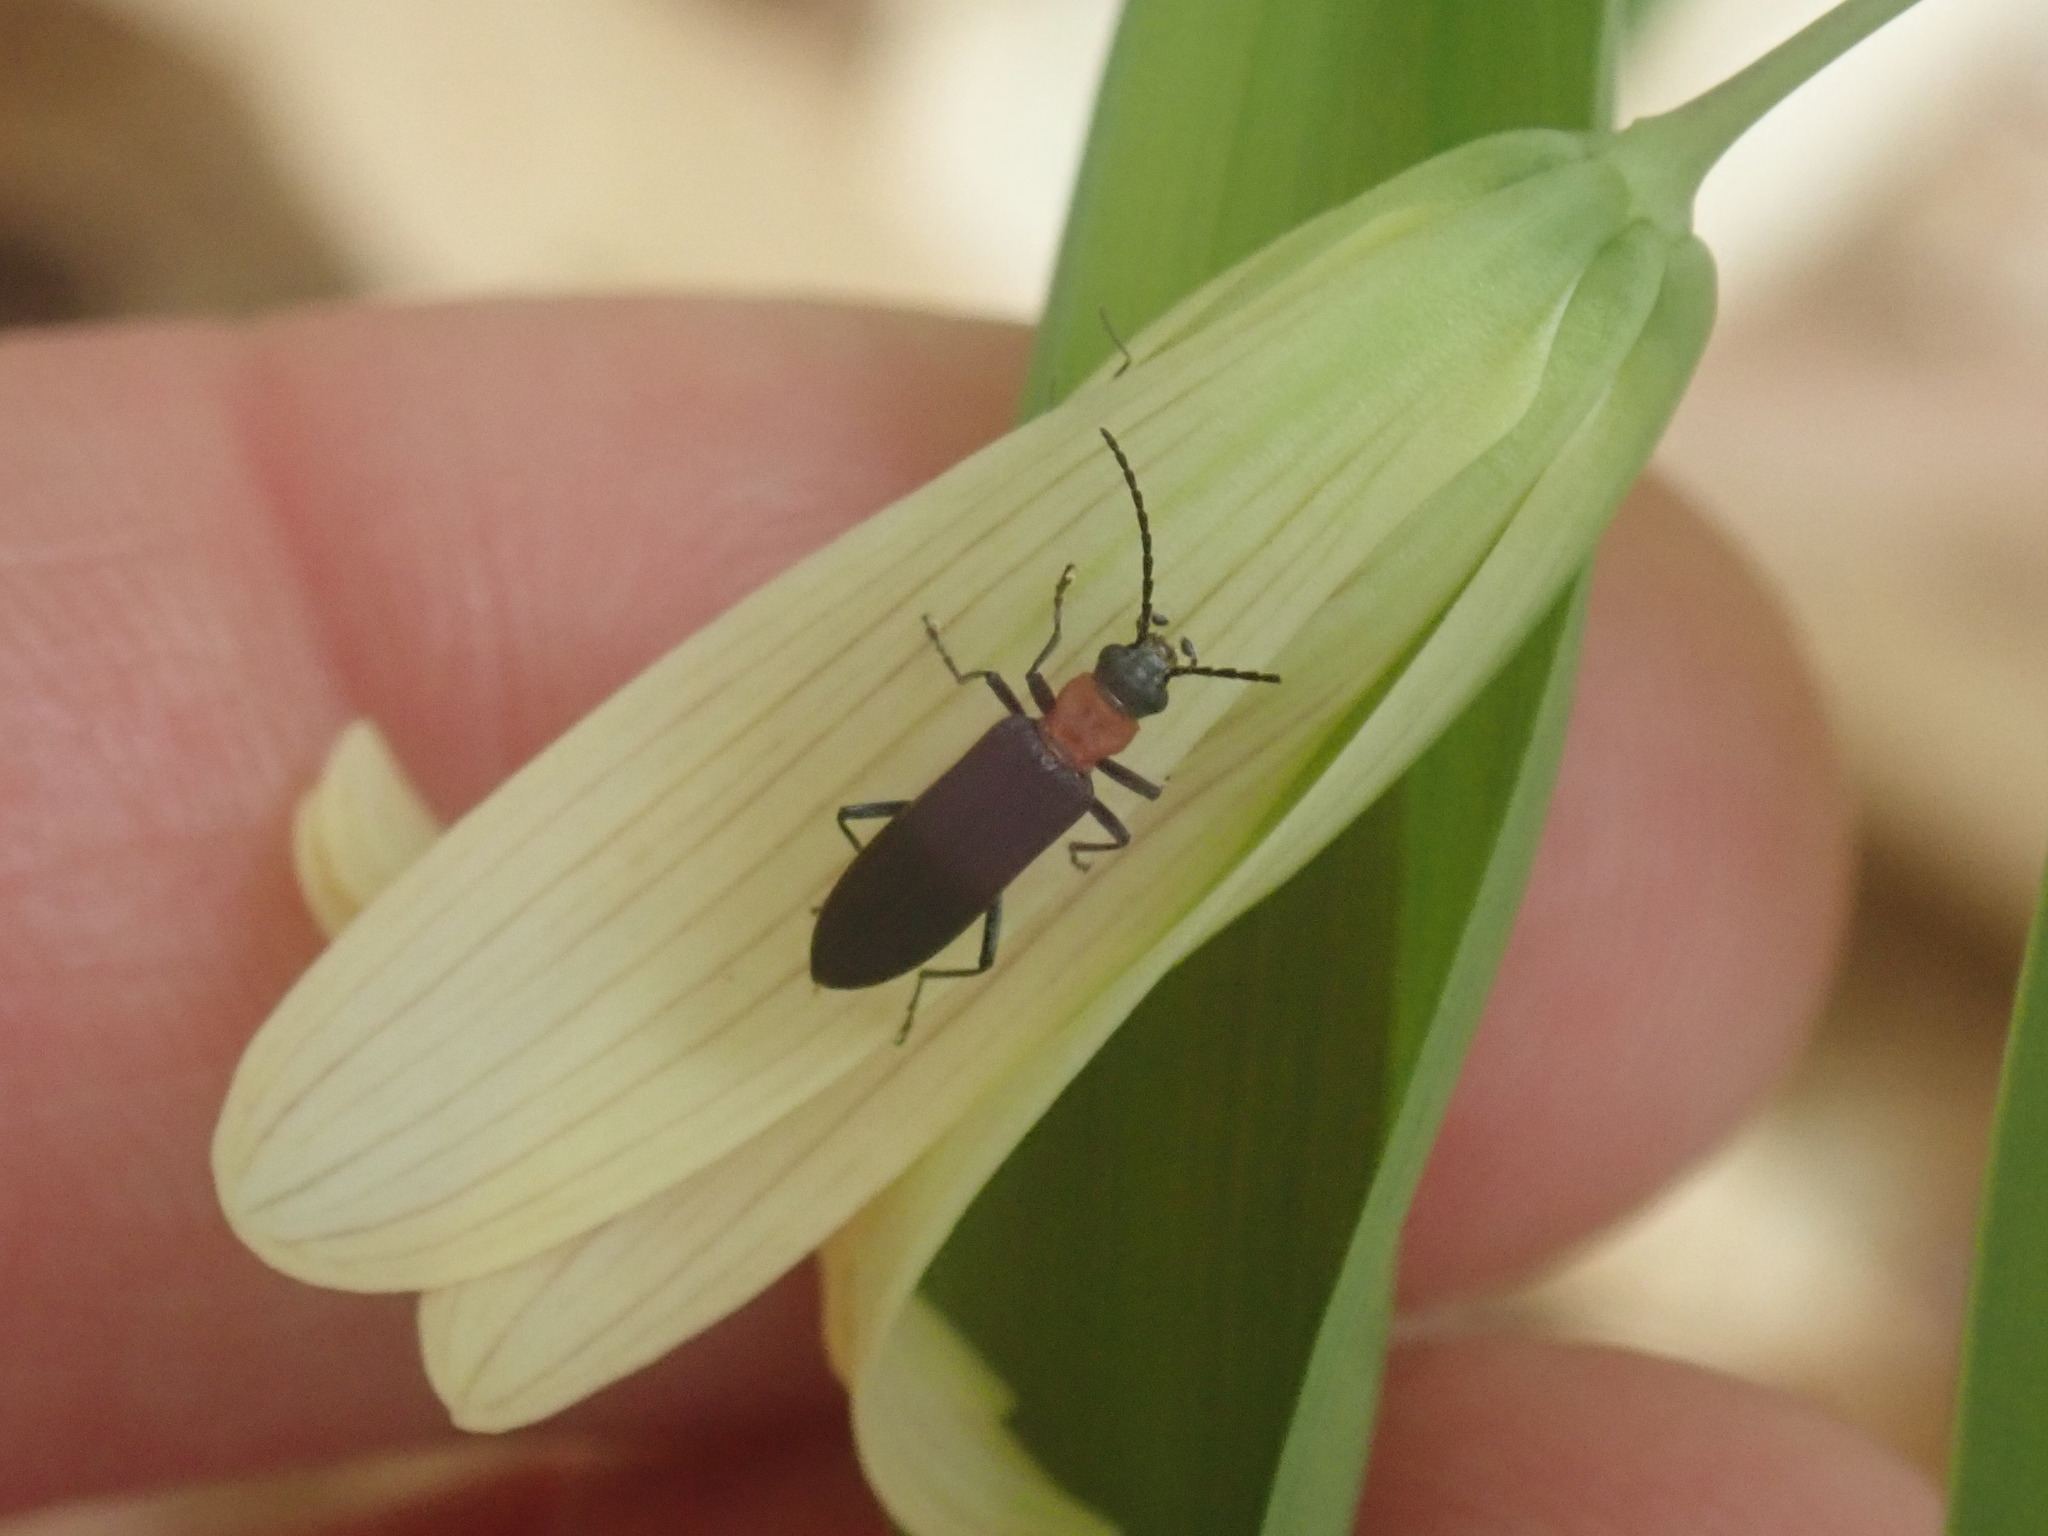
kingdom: Animalia
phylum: Arthropoda
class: Insecta
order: Coleoptera
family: Oedemeridae
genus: Ischnomera
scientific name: Ischnomera
